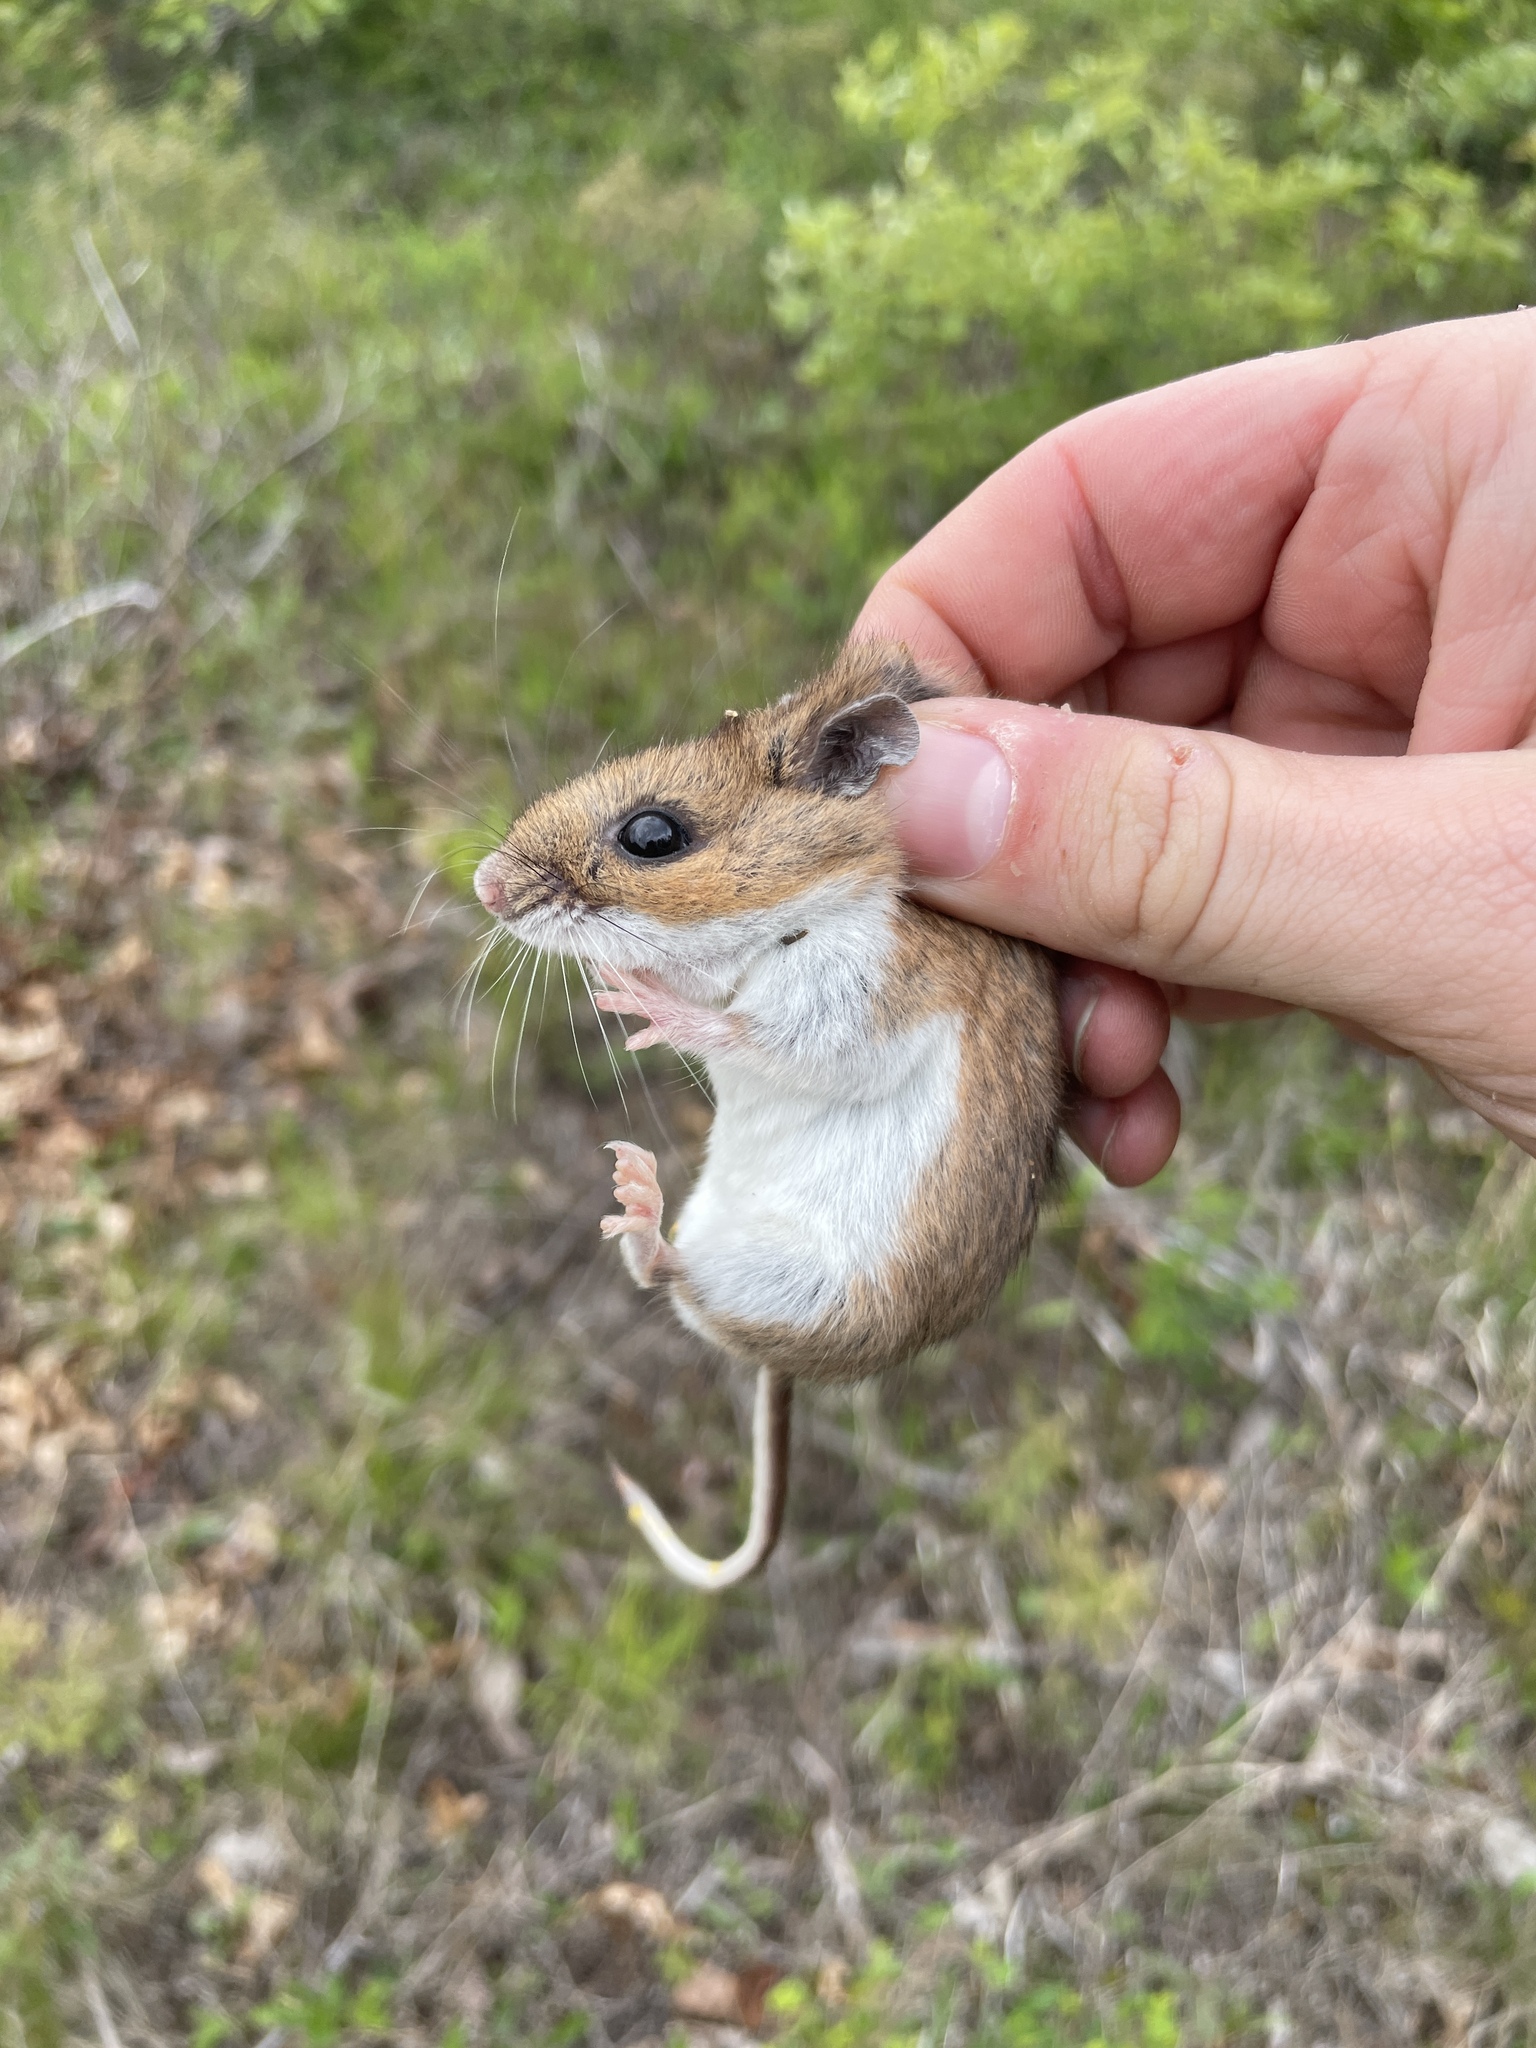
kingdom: Animalia
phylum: Chordata
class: Mammalia
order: Rodentia
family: Cricetidae
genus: Peromyscus
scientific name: Peromyscus leucopus
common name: White-footed deermouse
